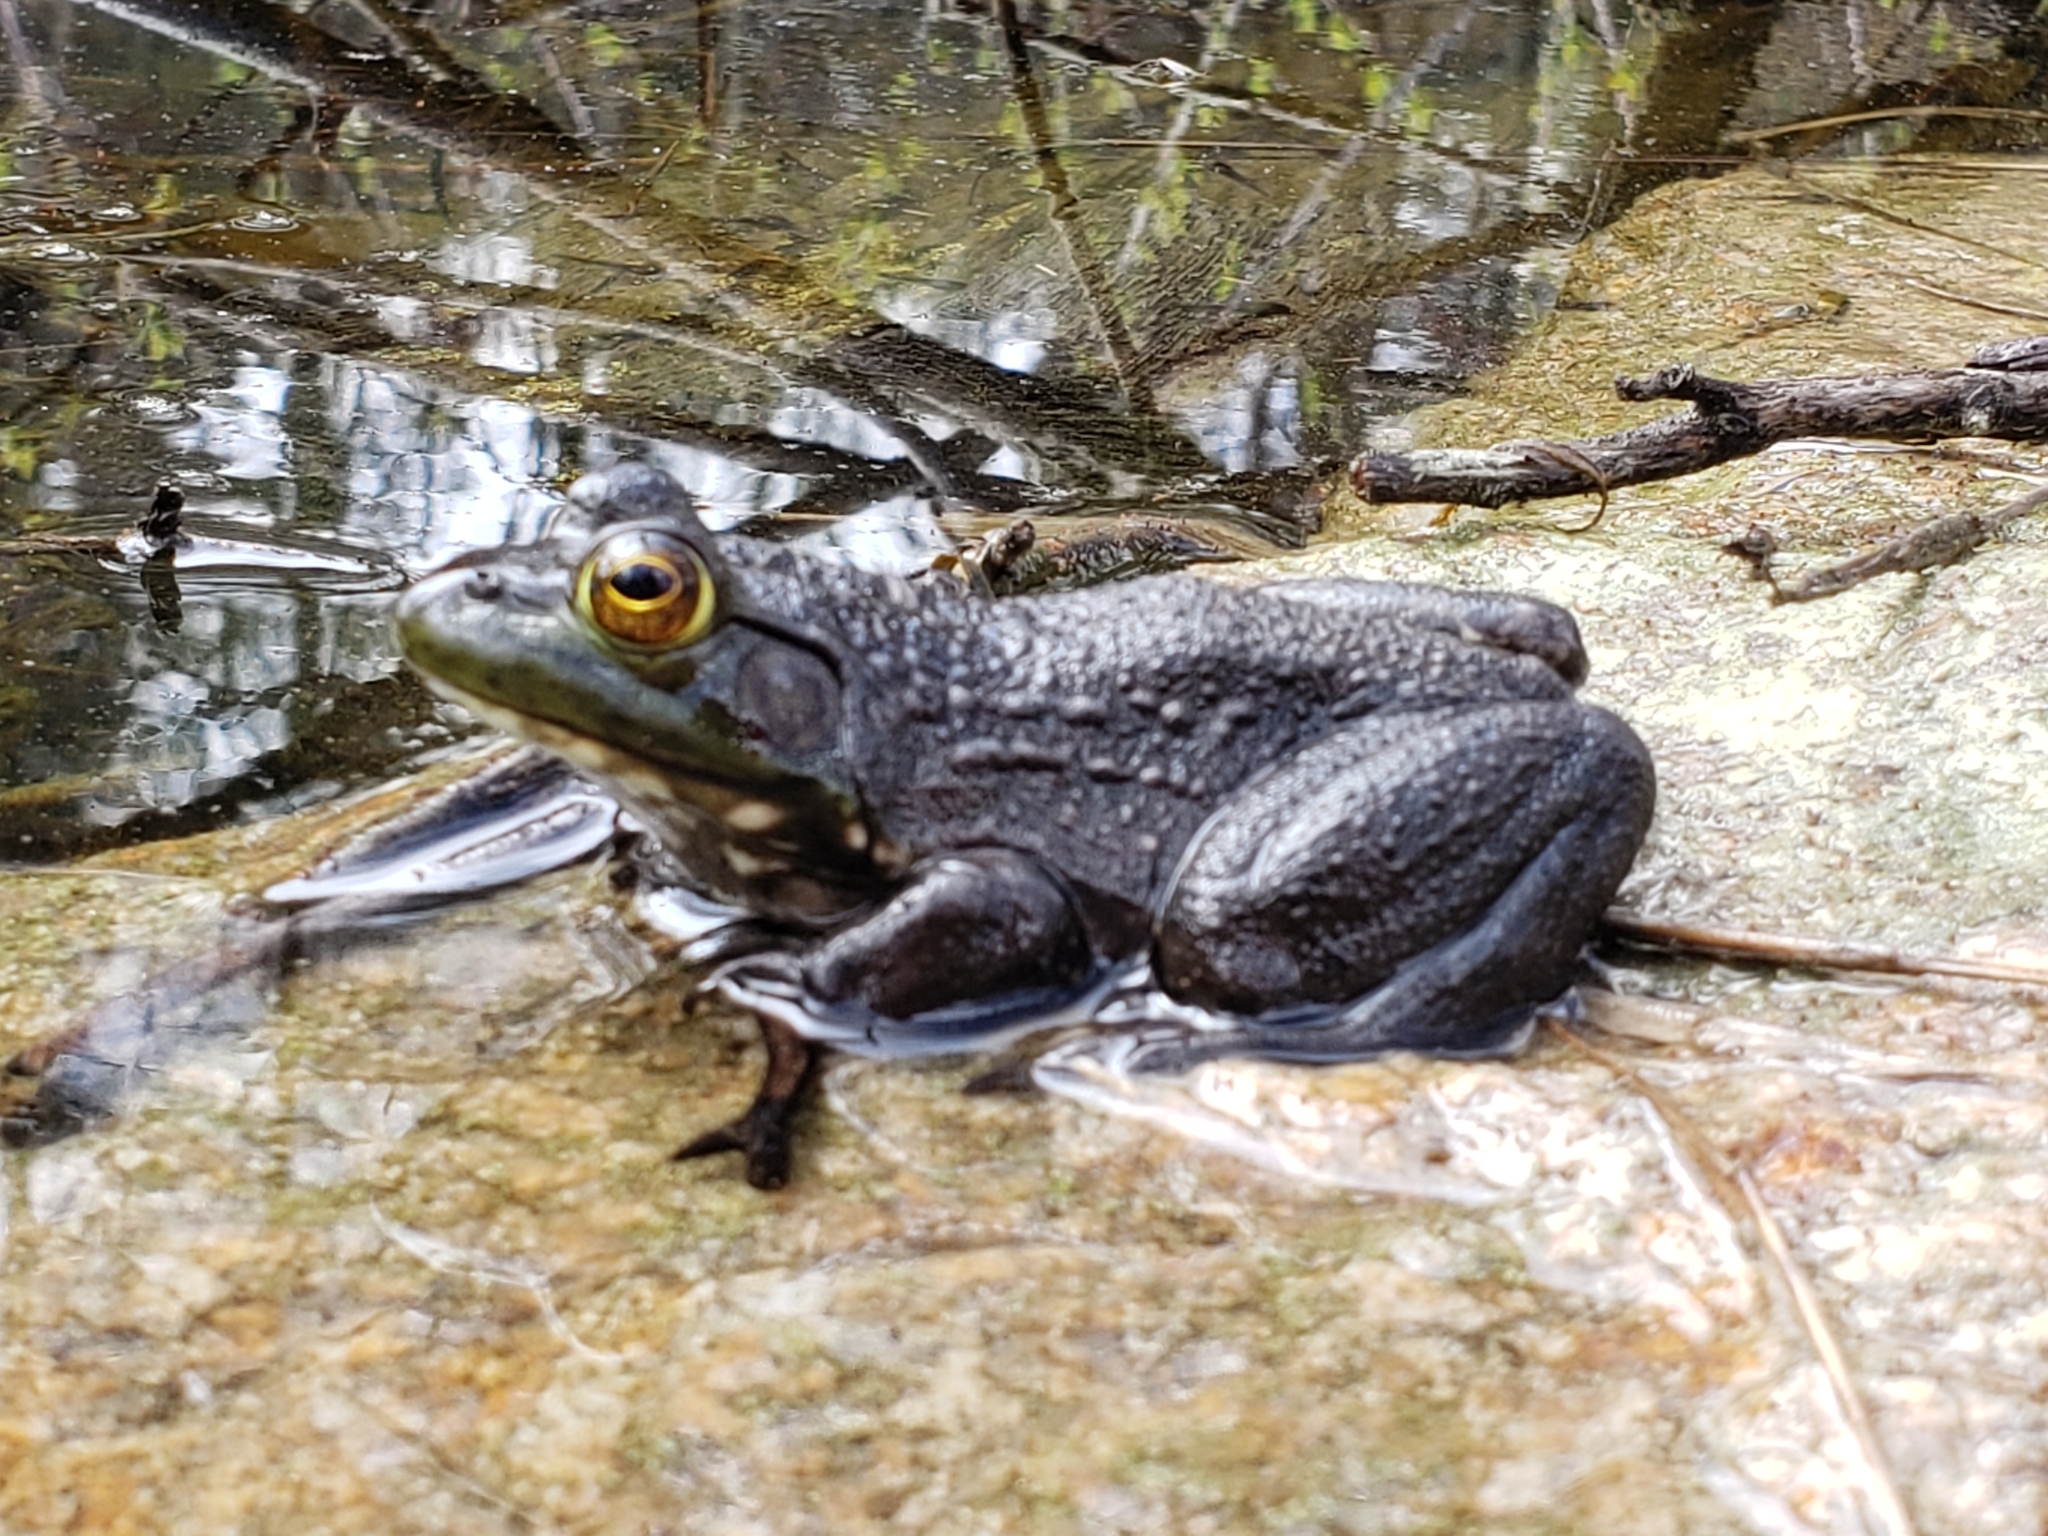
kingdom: Animalia
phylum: Chordata
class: Amphibia
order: Anura
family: Ranidae
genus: Lithobates
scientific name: Lithobates catesbeianus
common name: American bullfrog
